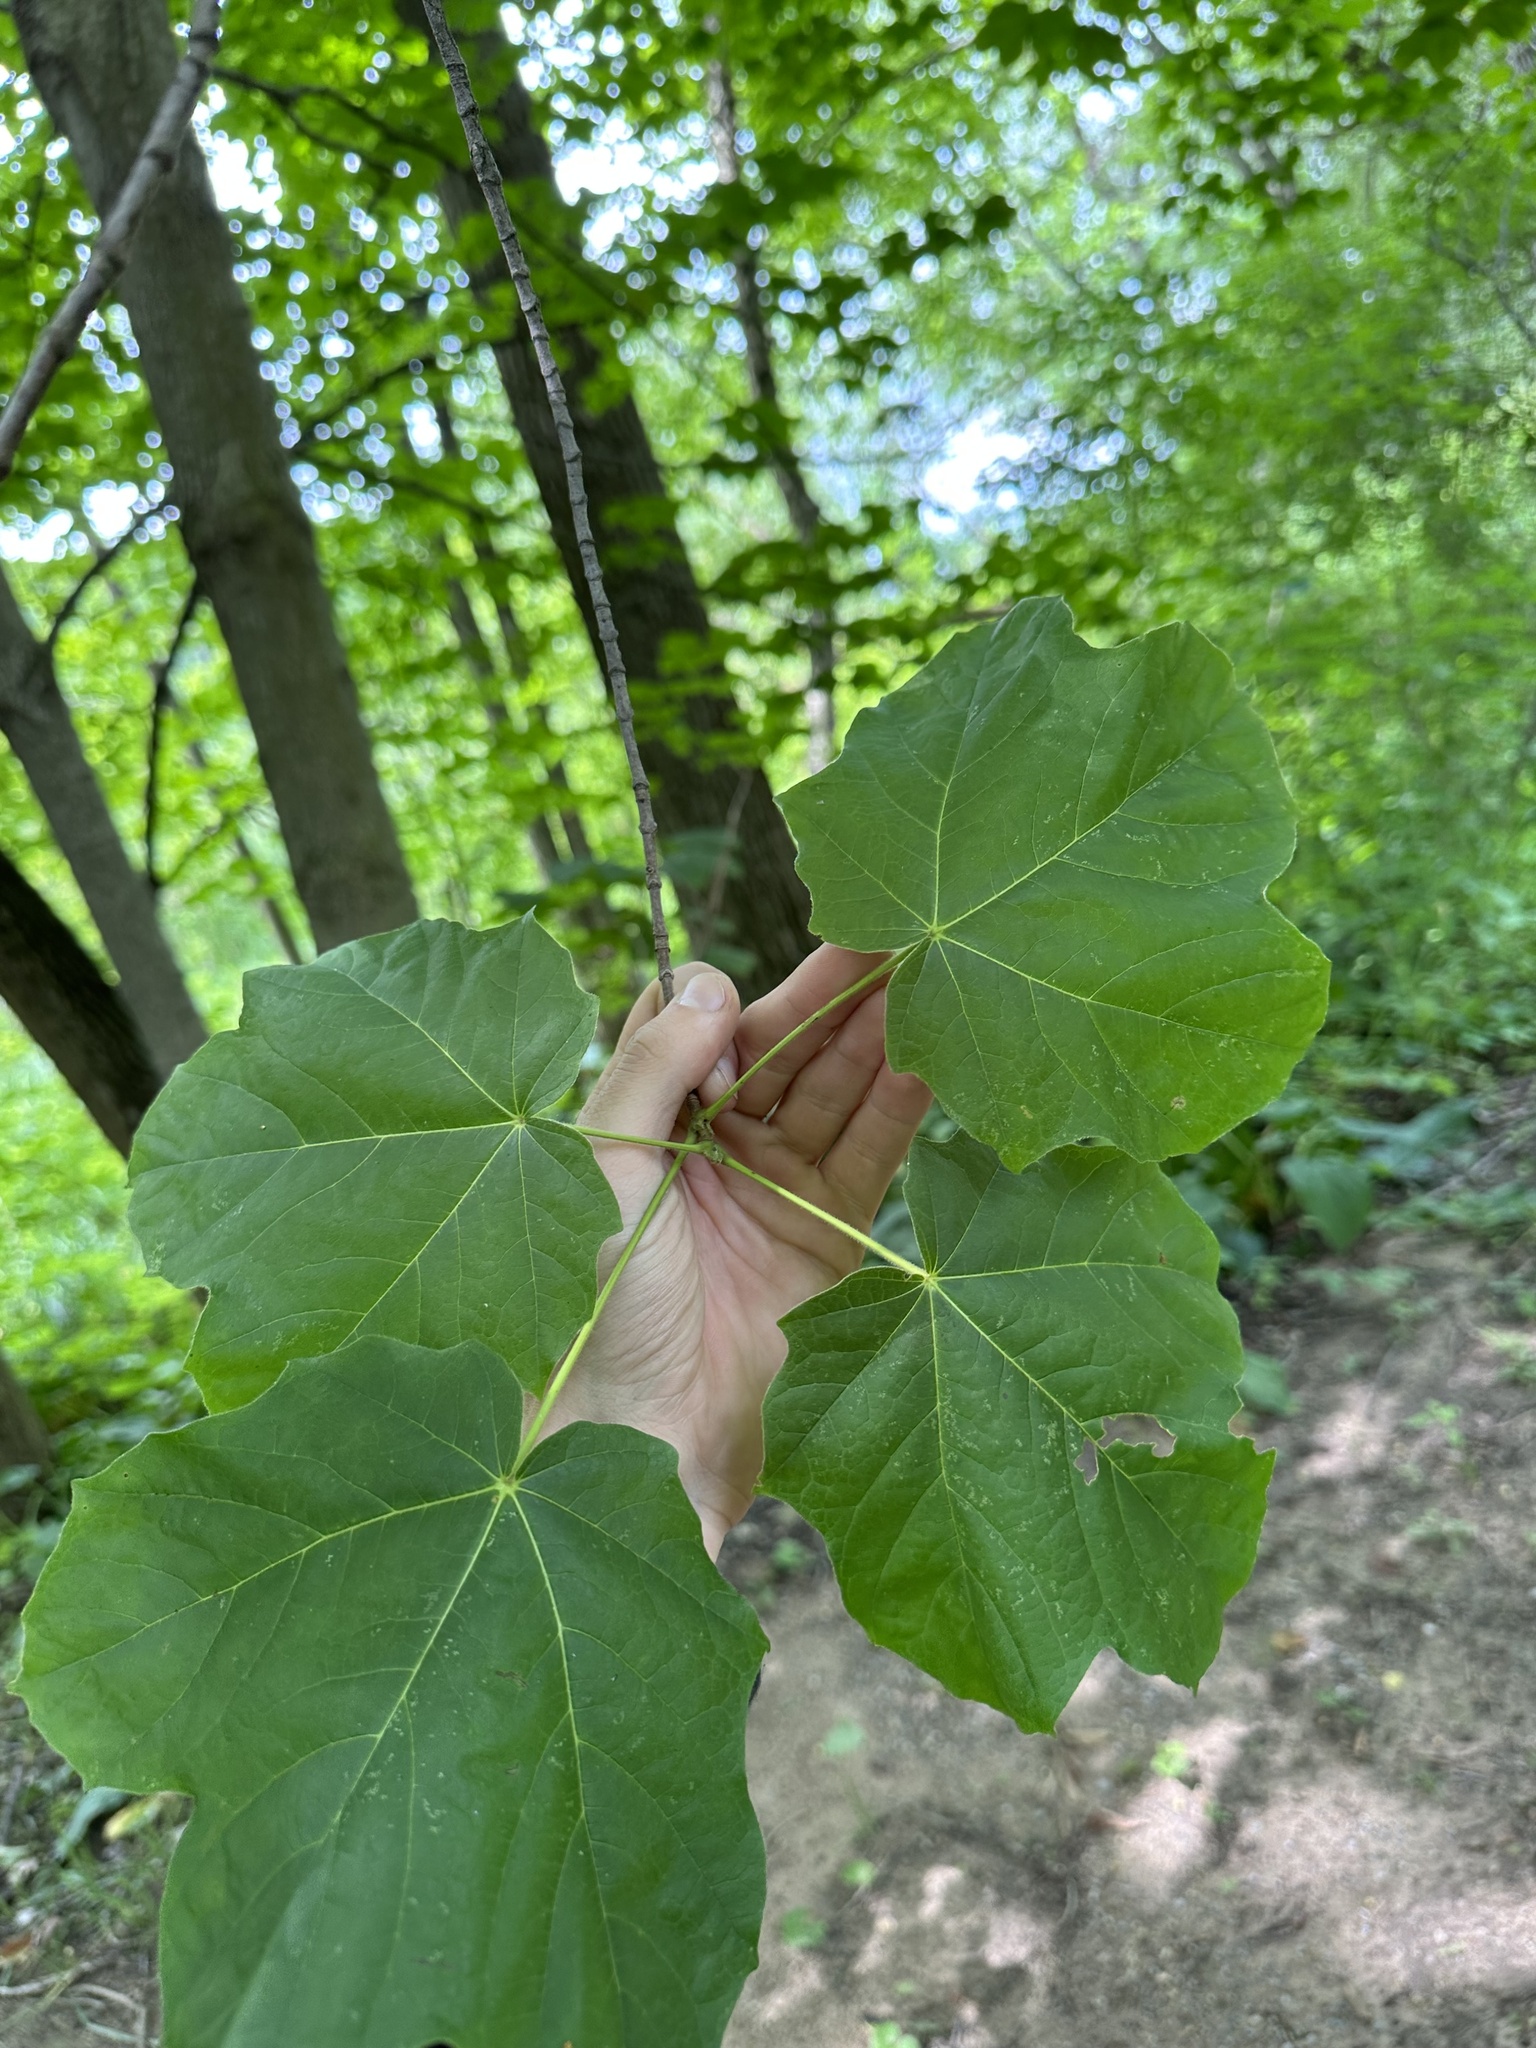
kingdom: Plantae
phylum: Tracheophyta
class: Magnoliopsida
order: Sapindales
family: Sapindaceae
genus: Acer
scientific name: Acer nigrum
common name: Black maple
